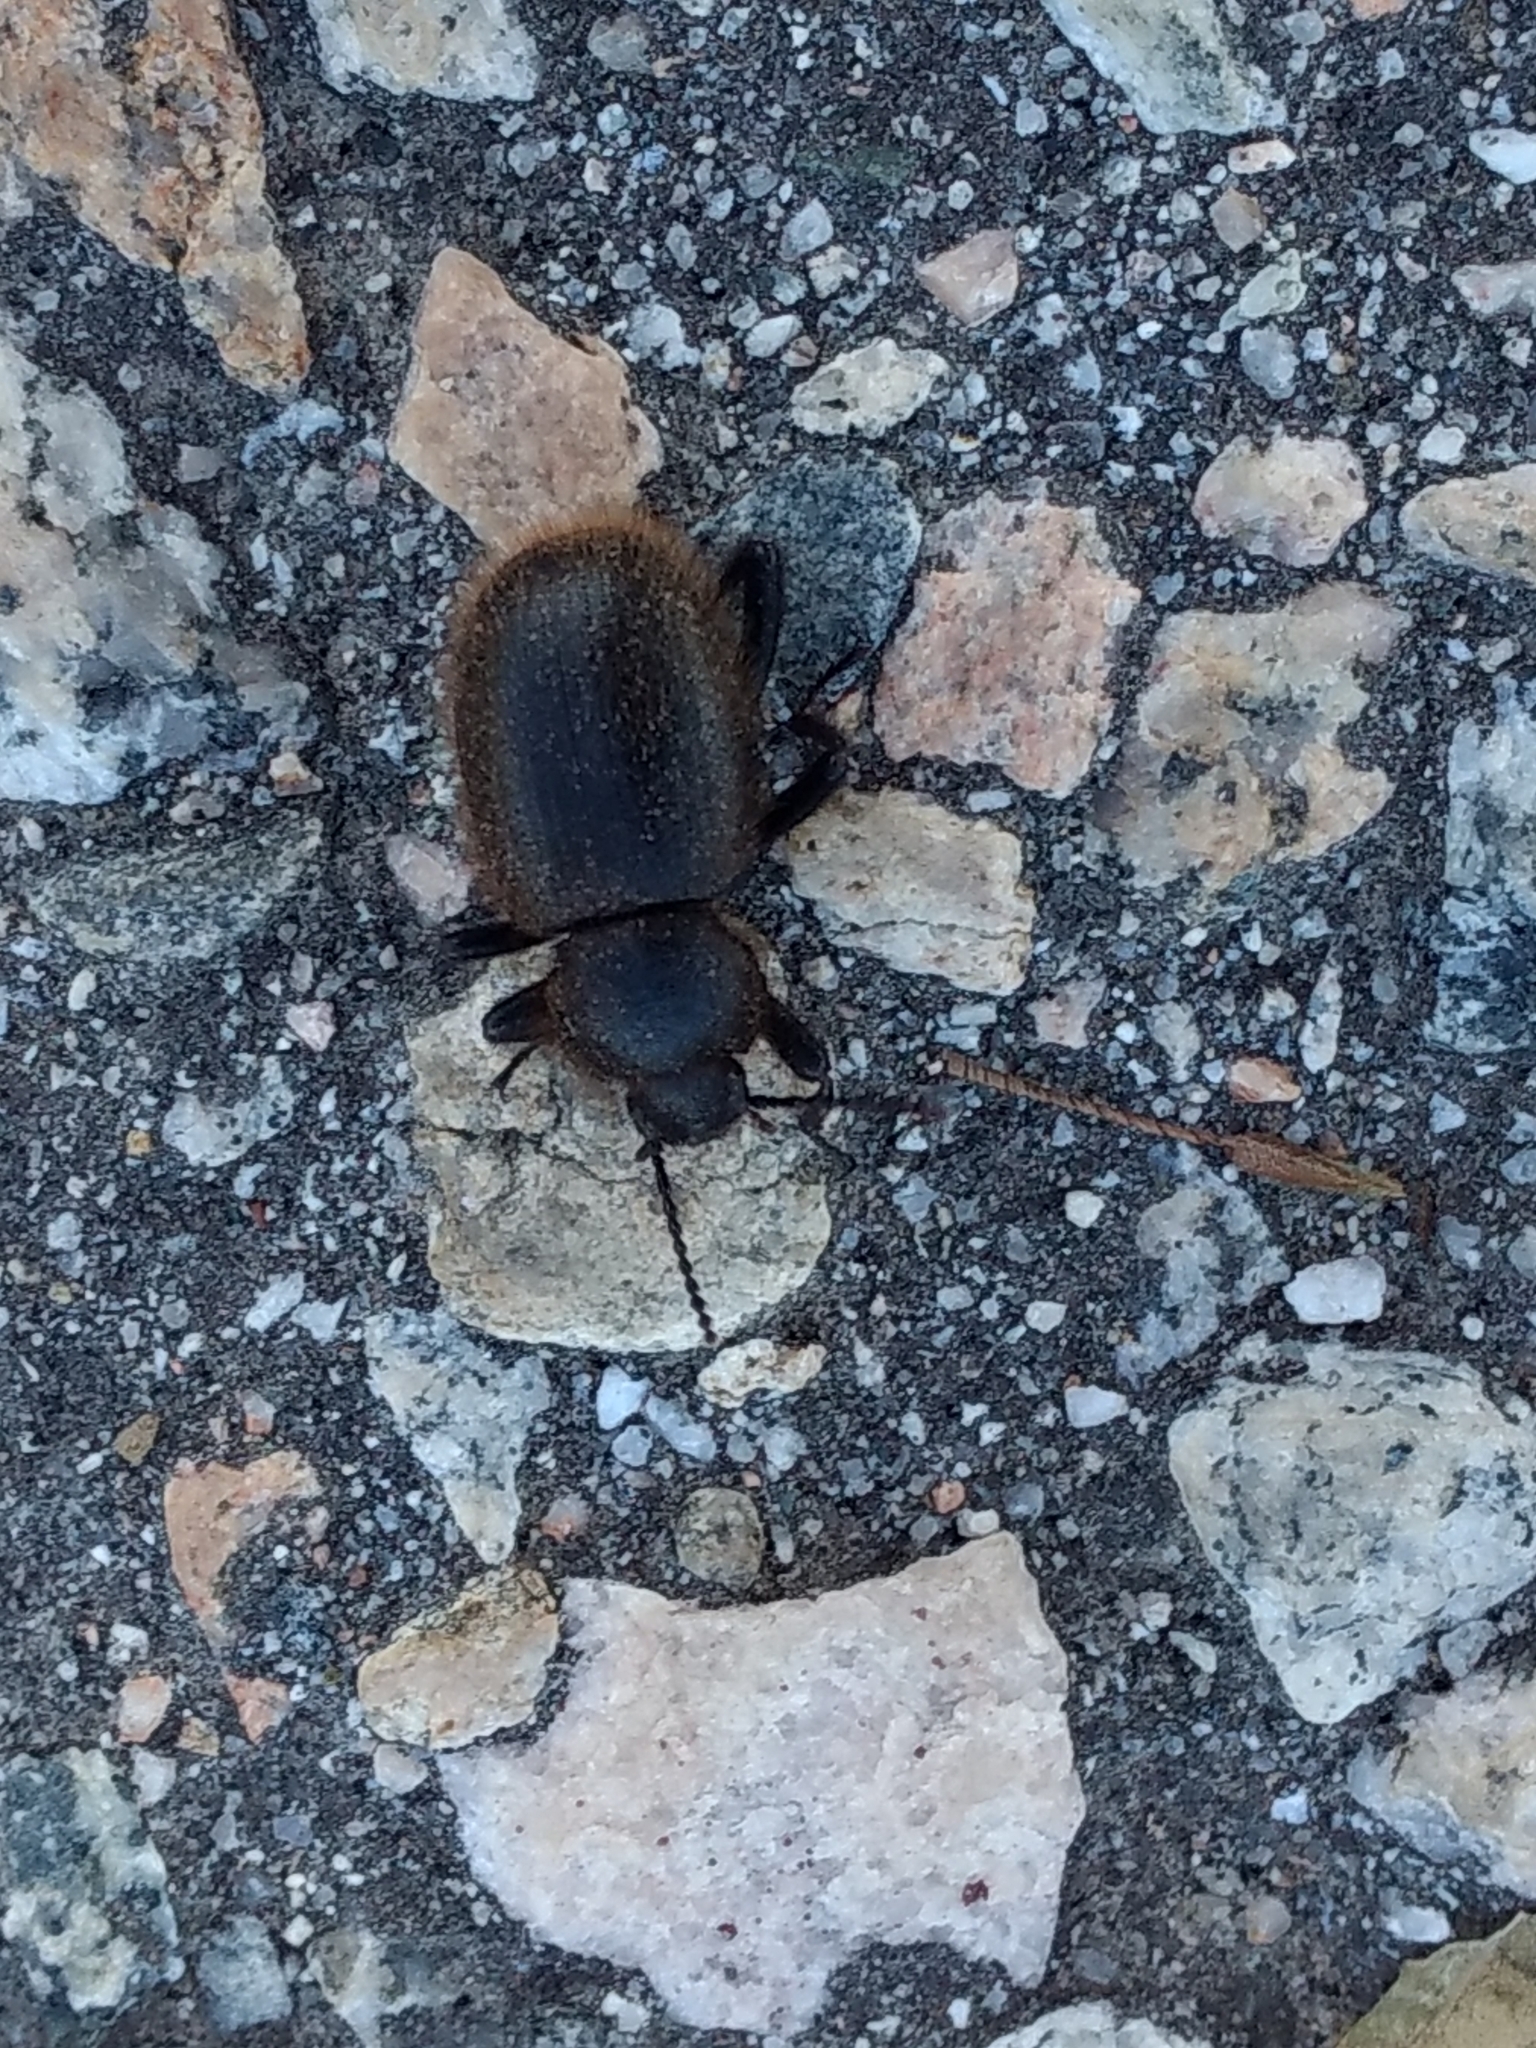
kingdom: Animalia
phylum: Arthropoda
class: Insecta
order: Coleoptera
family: Tenebrionidae
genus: Eleodes
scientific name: Eleodes osculans
